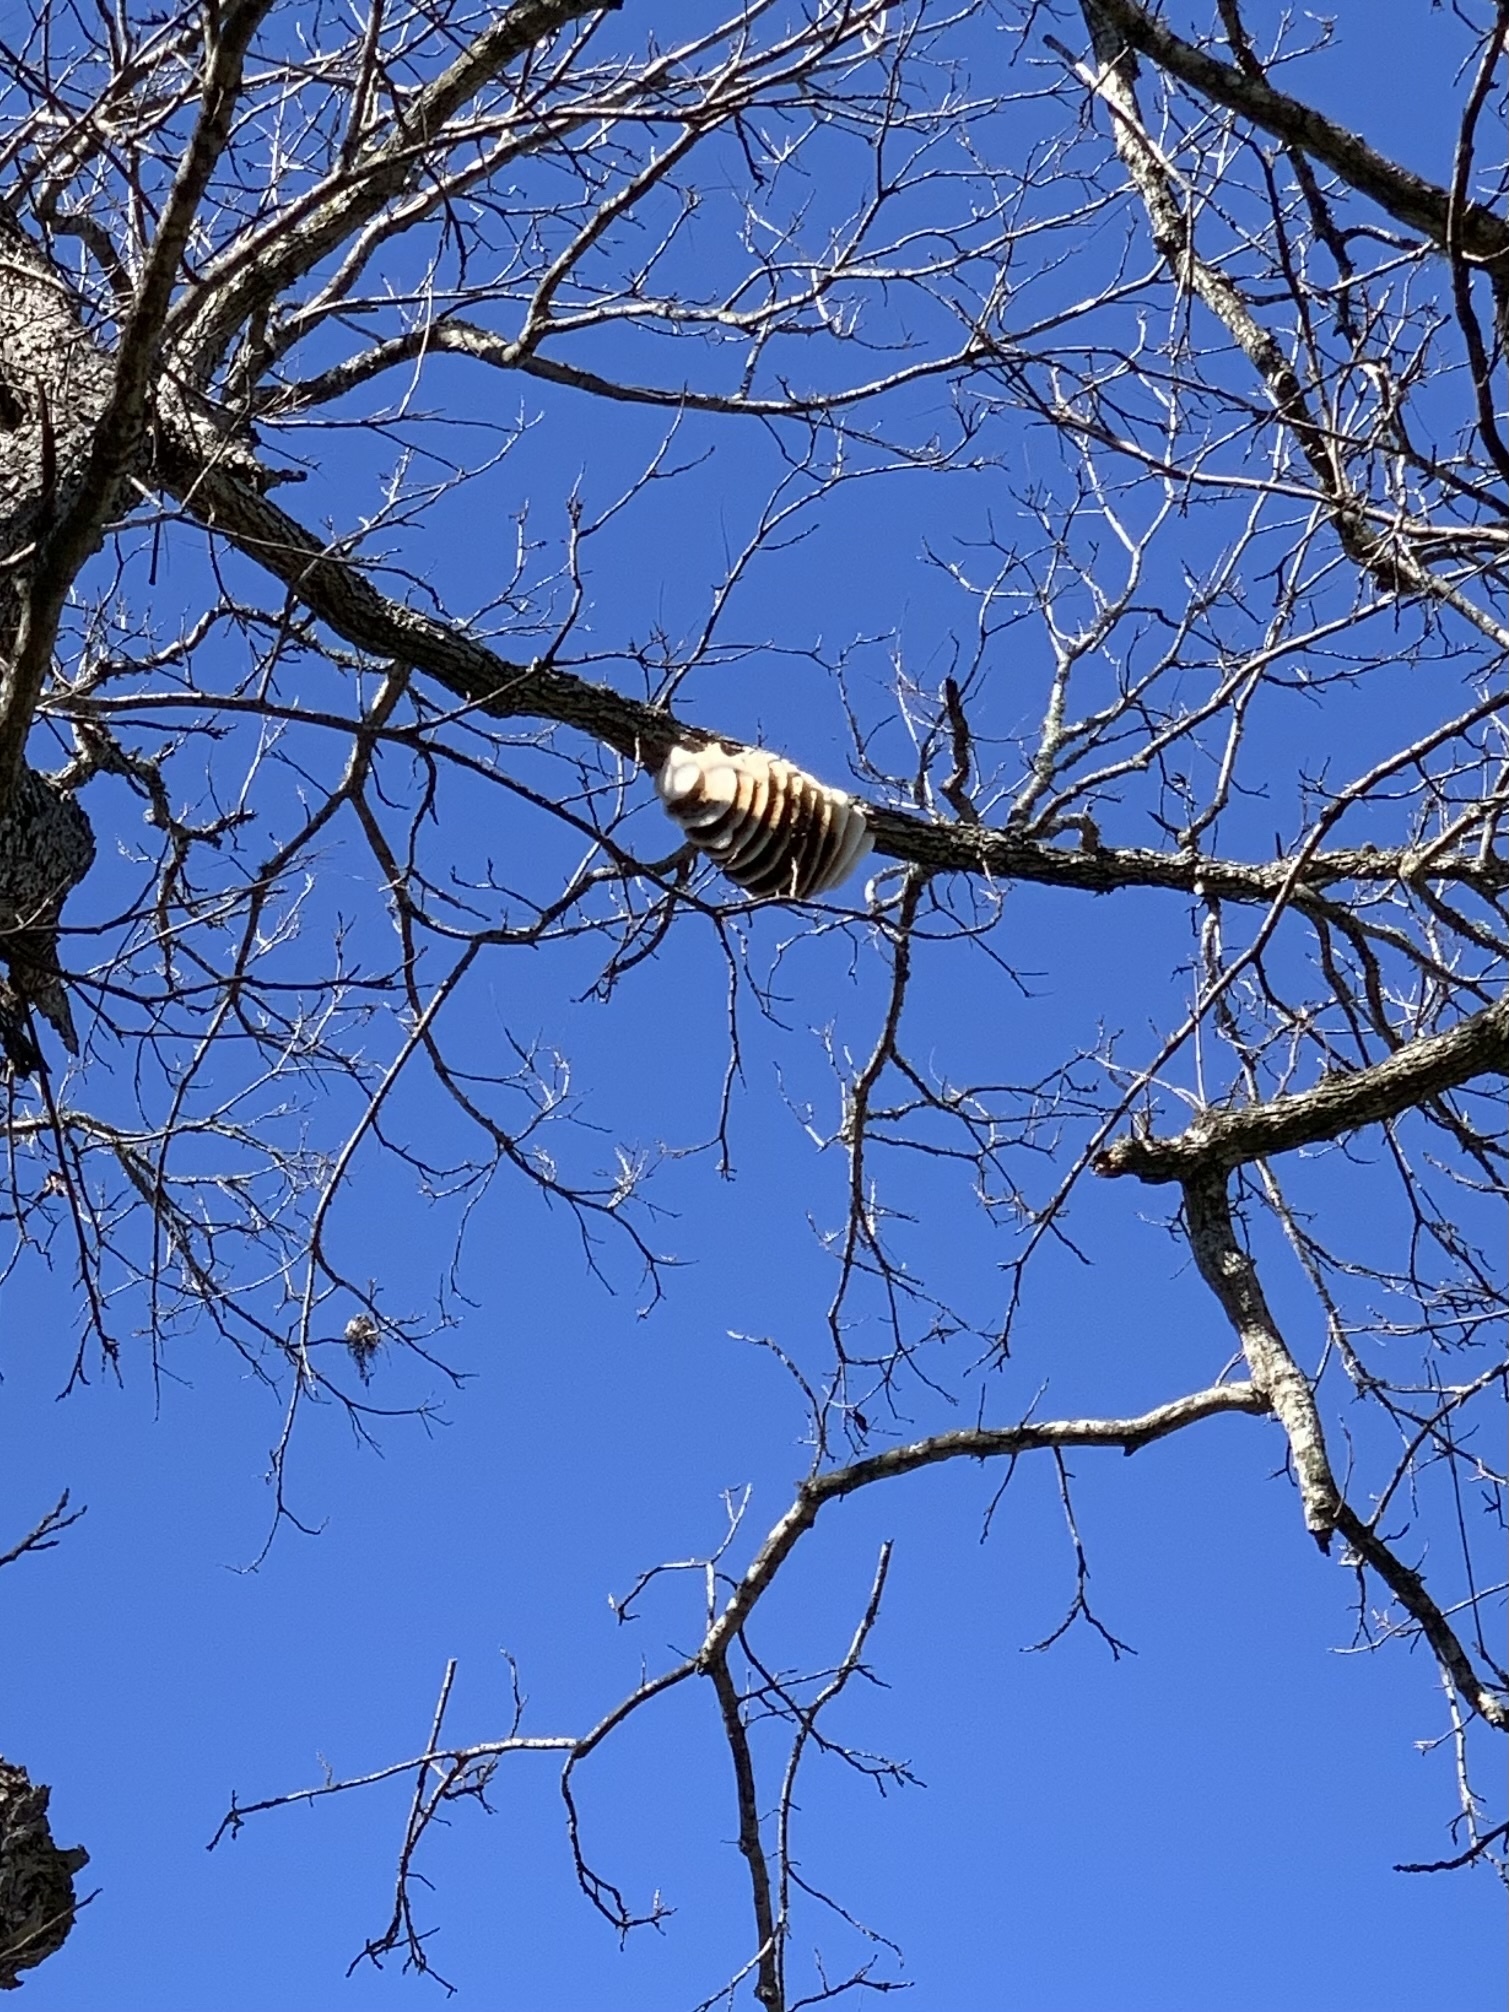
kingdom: Animalia
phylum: Arthropoda
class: Insecta
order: Hymenoptera
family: Apidae
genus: Apis
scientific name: Apis mellifera
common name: Honey bee
